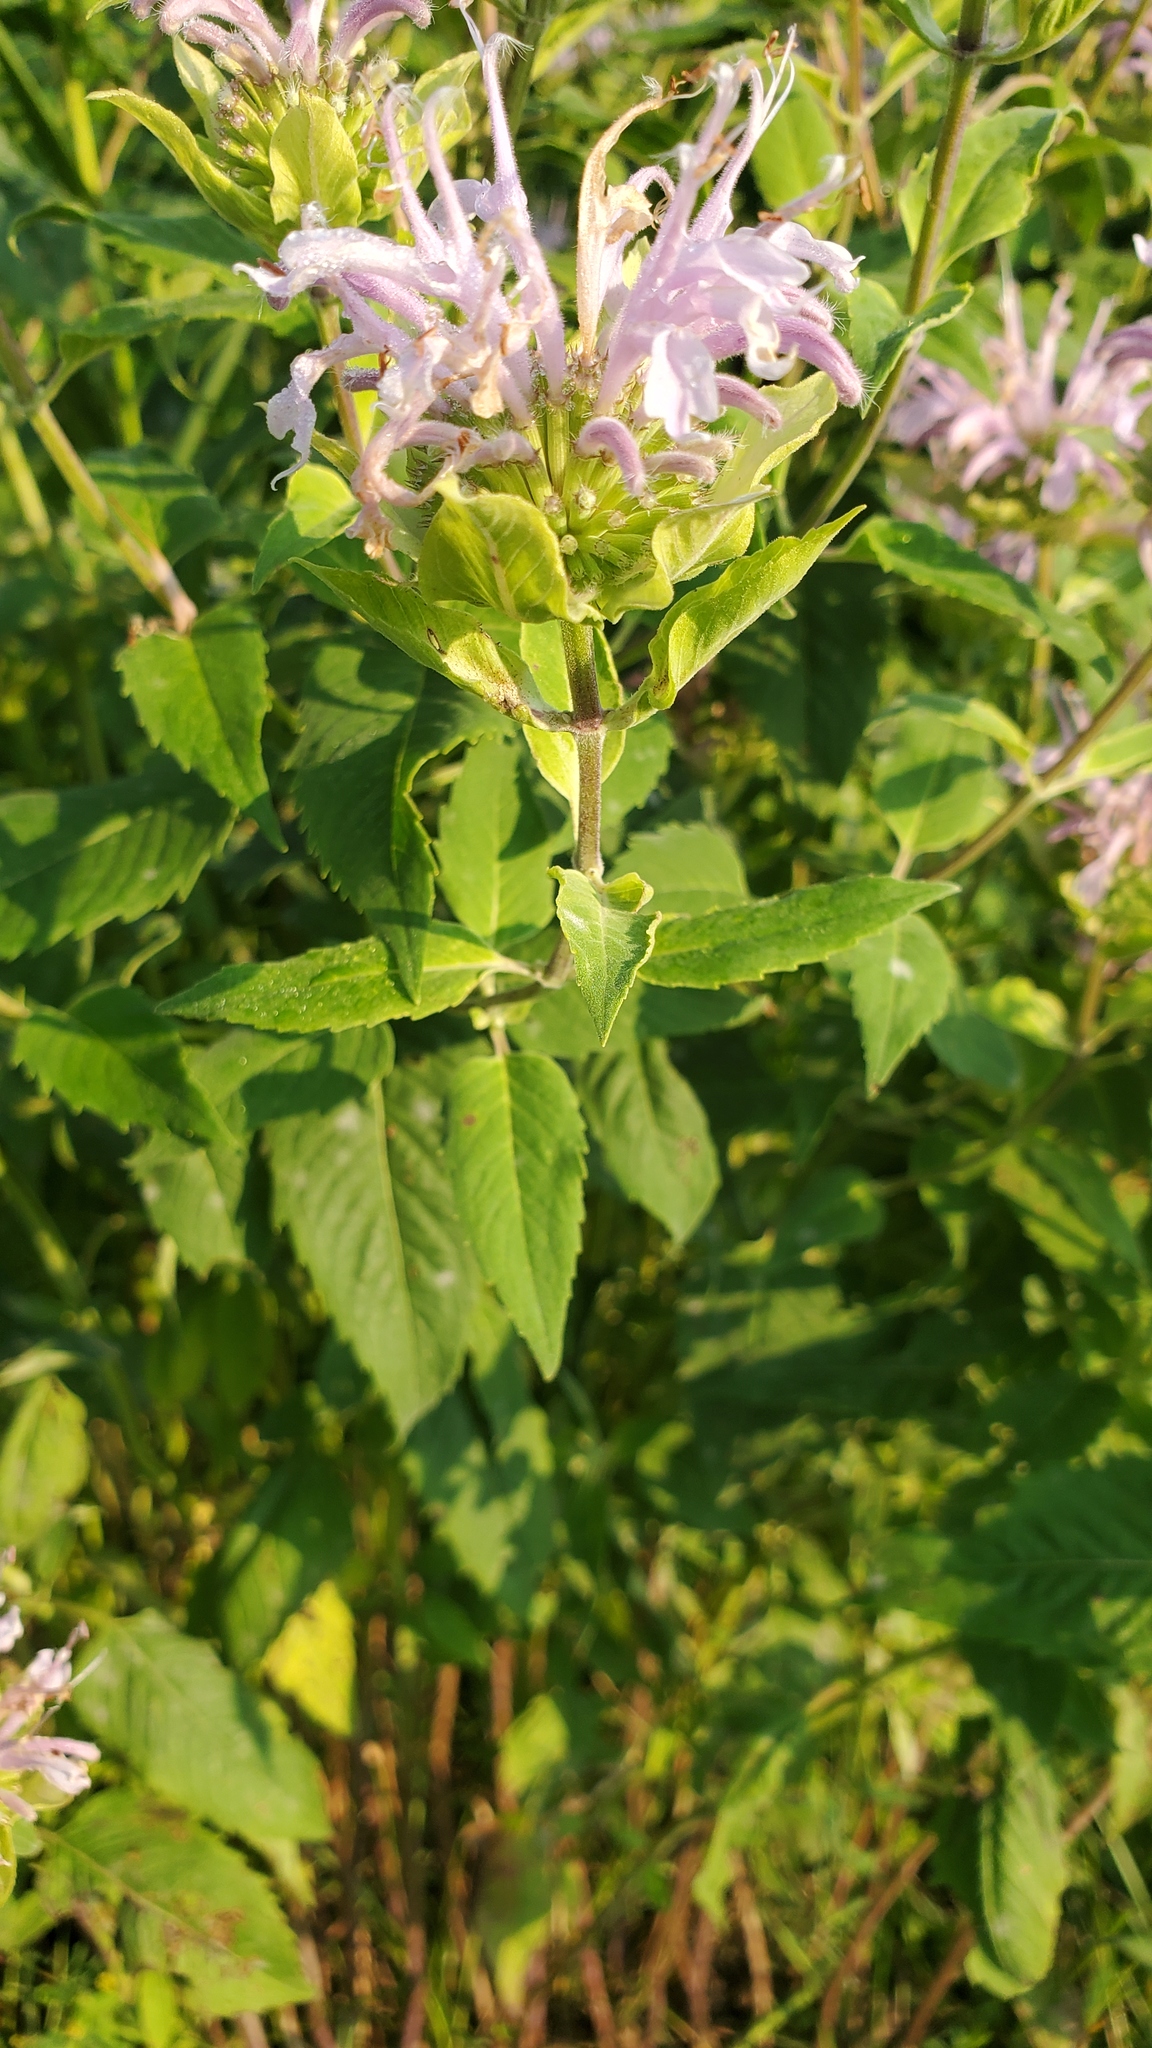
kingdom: Plantae
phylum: Tracheophyta
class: Magnoliopsida
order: Lamiales
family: Lamiaceae
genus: Monarda
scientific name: Monarda fistulosa
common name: Purple beebalm
